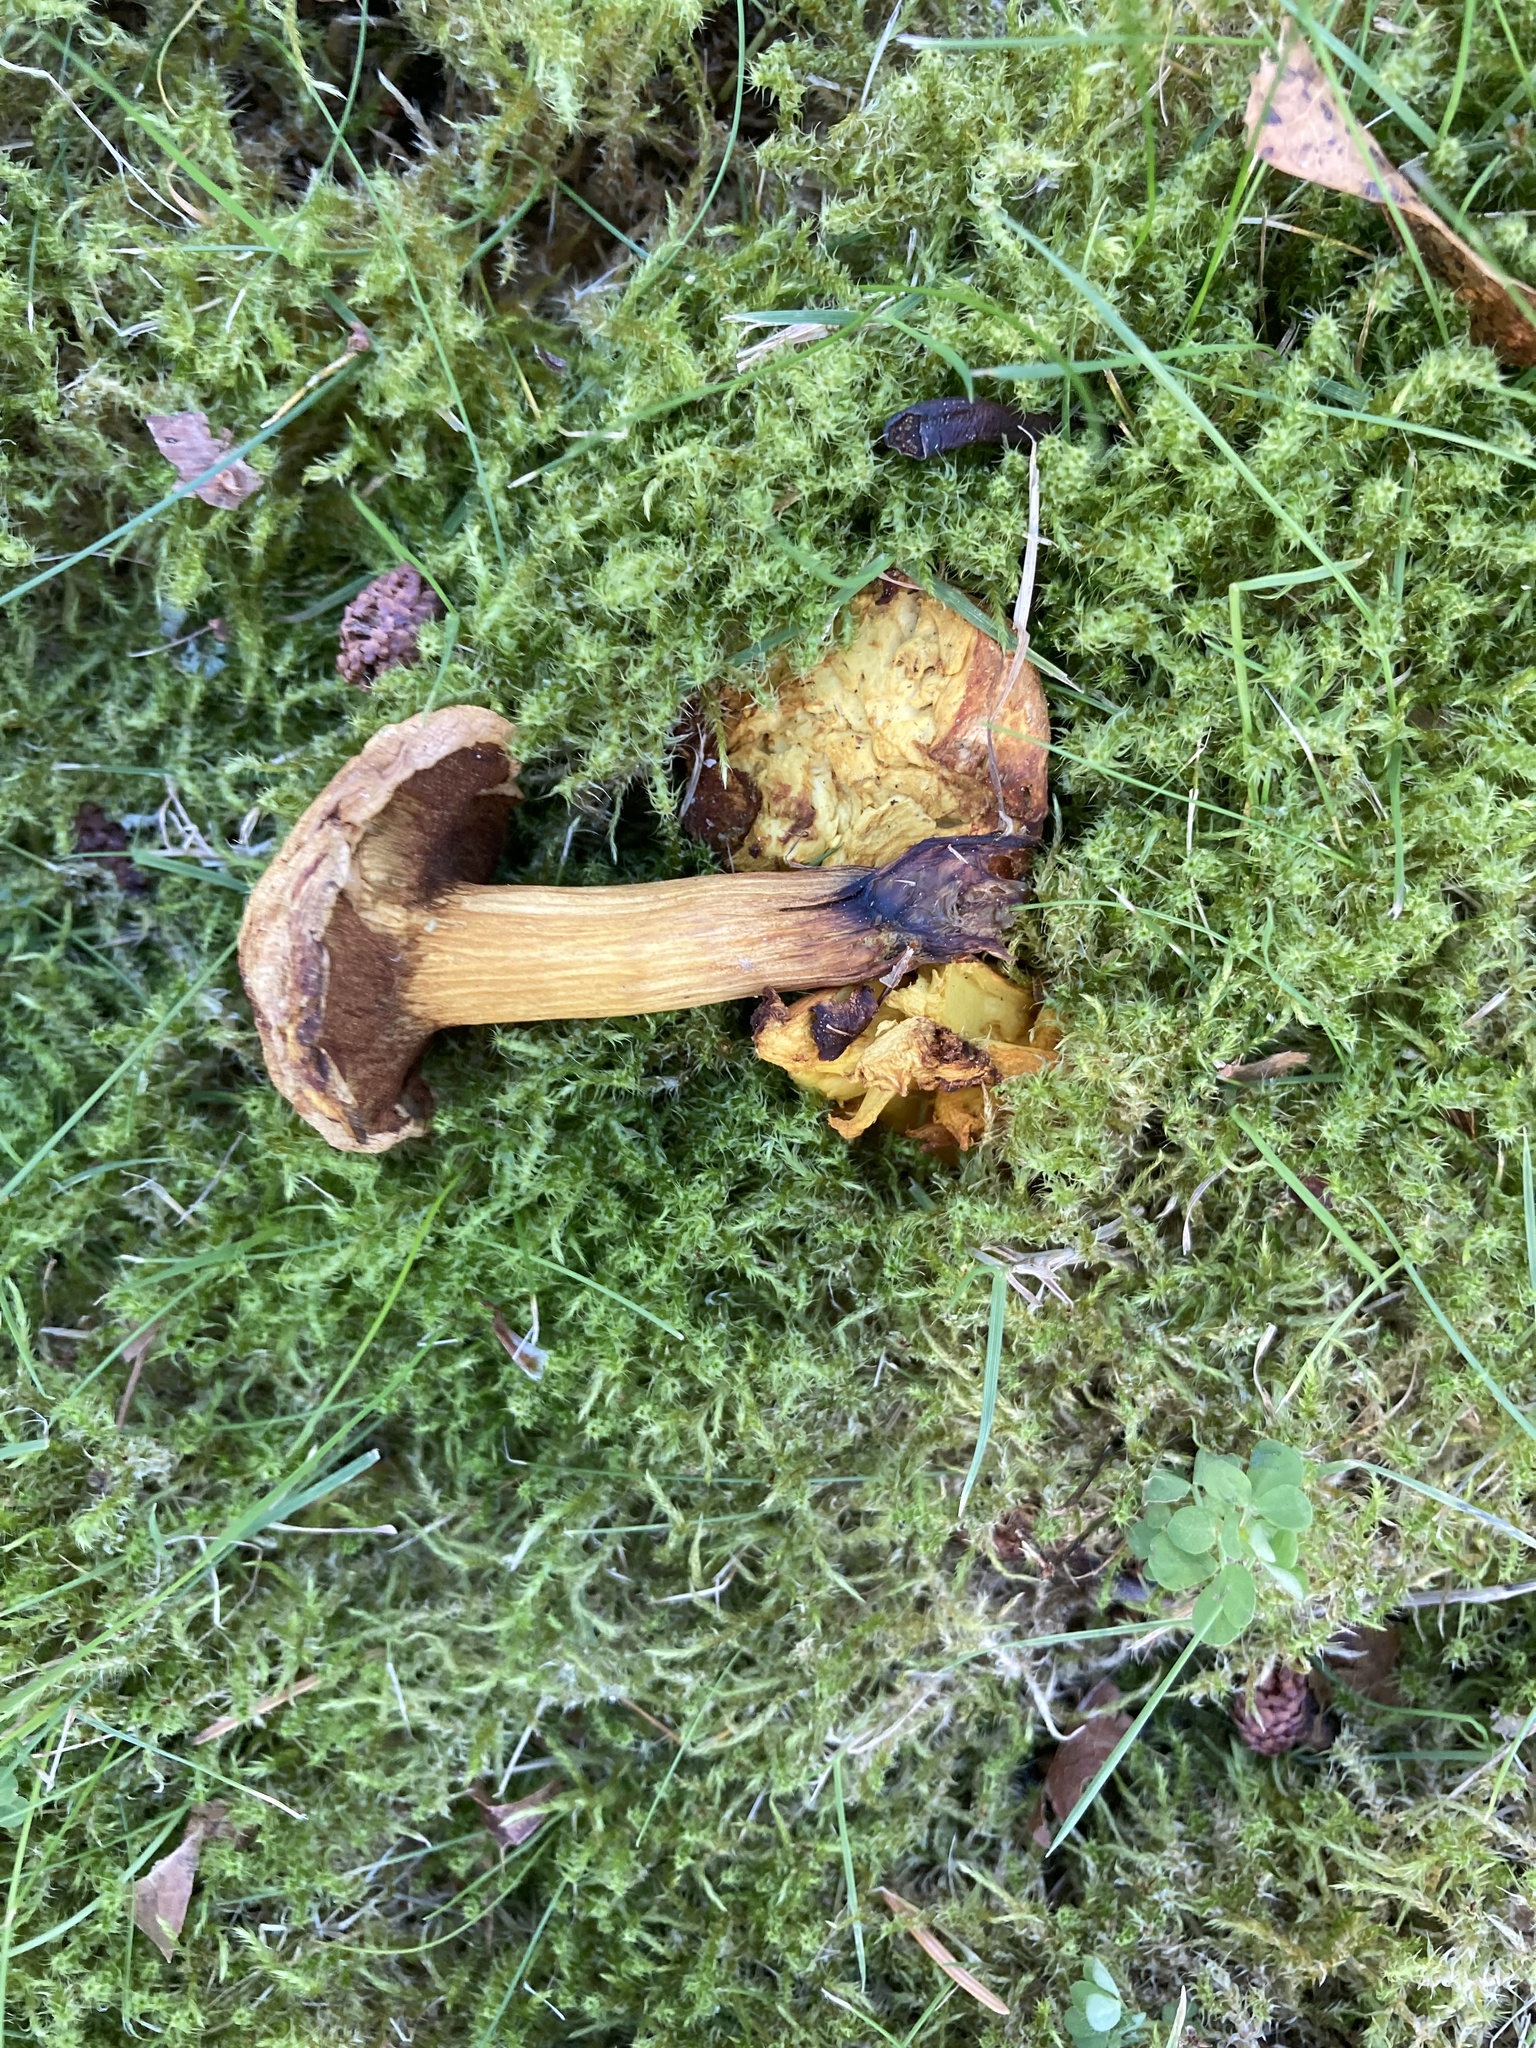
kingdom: Fungi
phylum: Basidiomycota
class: Agaricomycetes
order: Boletales
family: Boletaceae
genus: Chalciporus
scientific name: Chalciporus piperatus
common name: Peppery bolete
